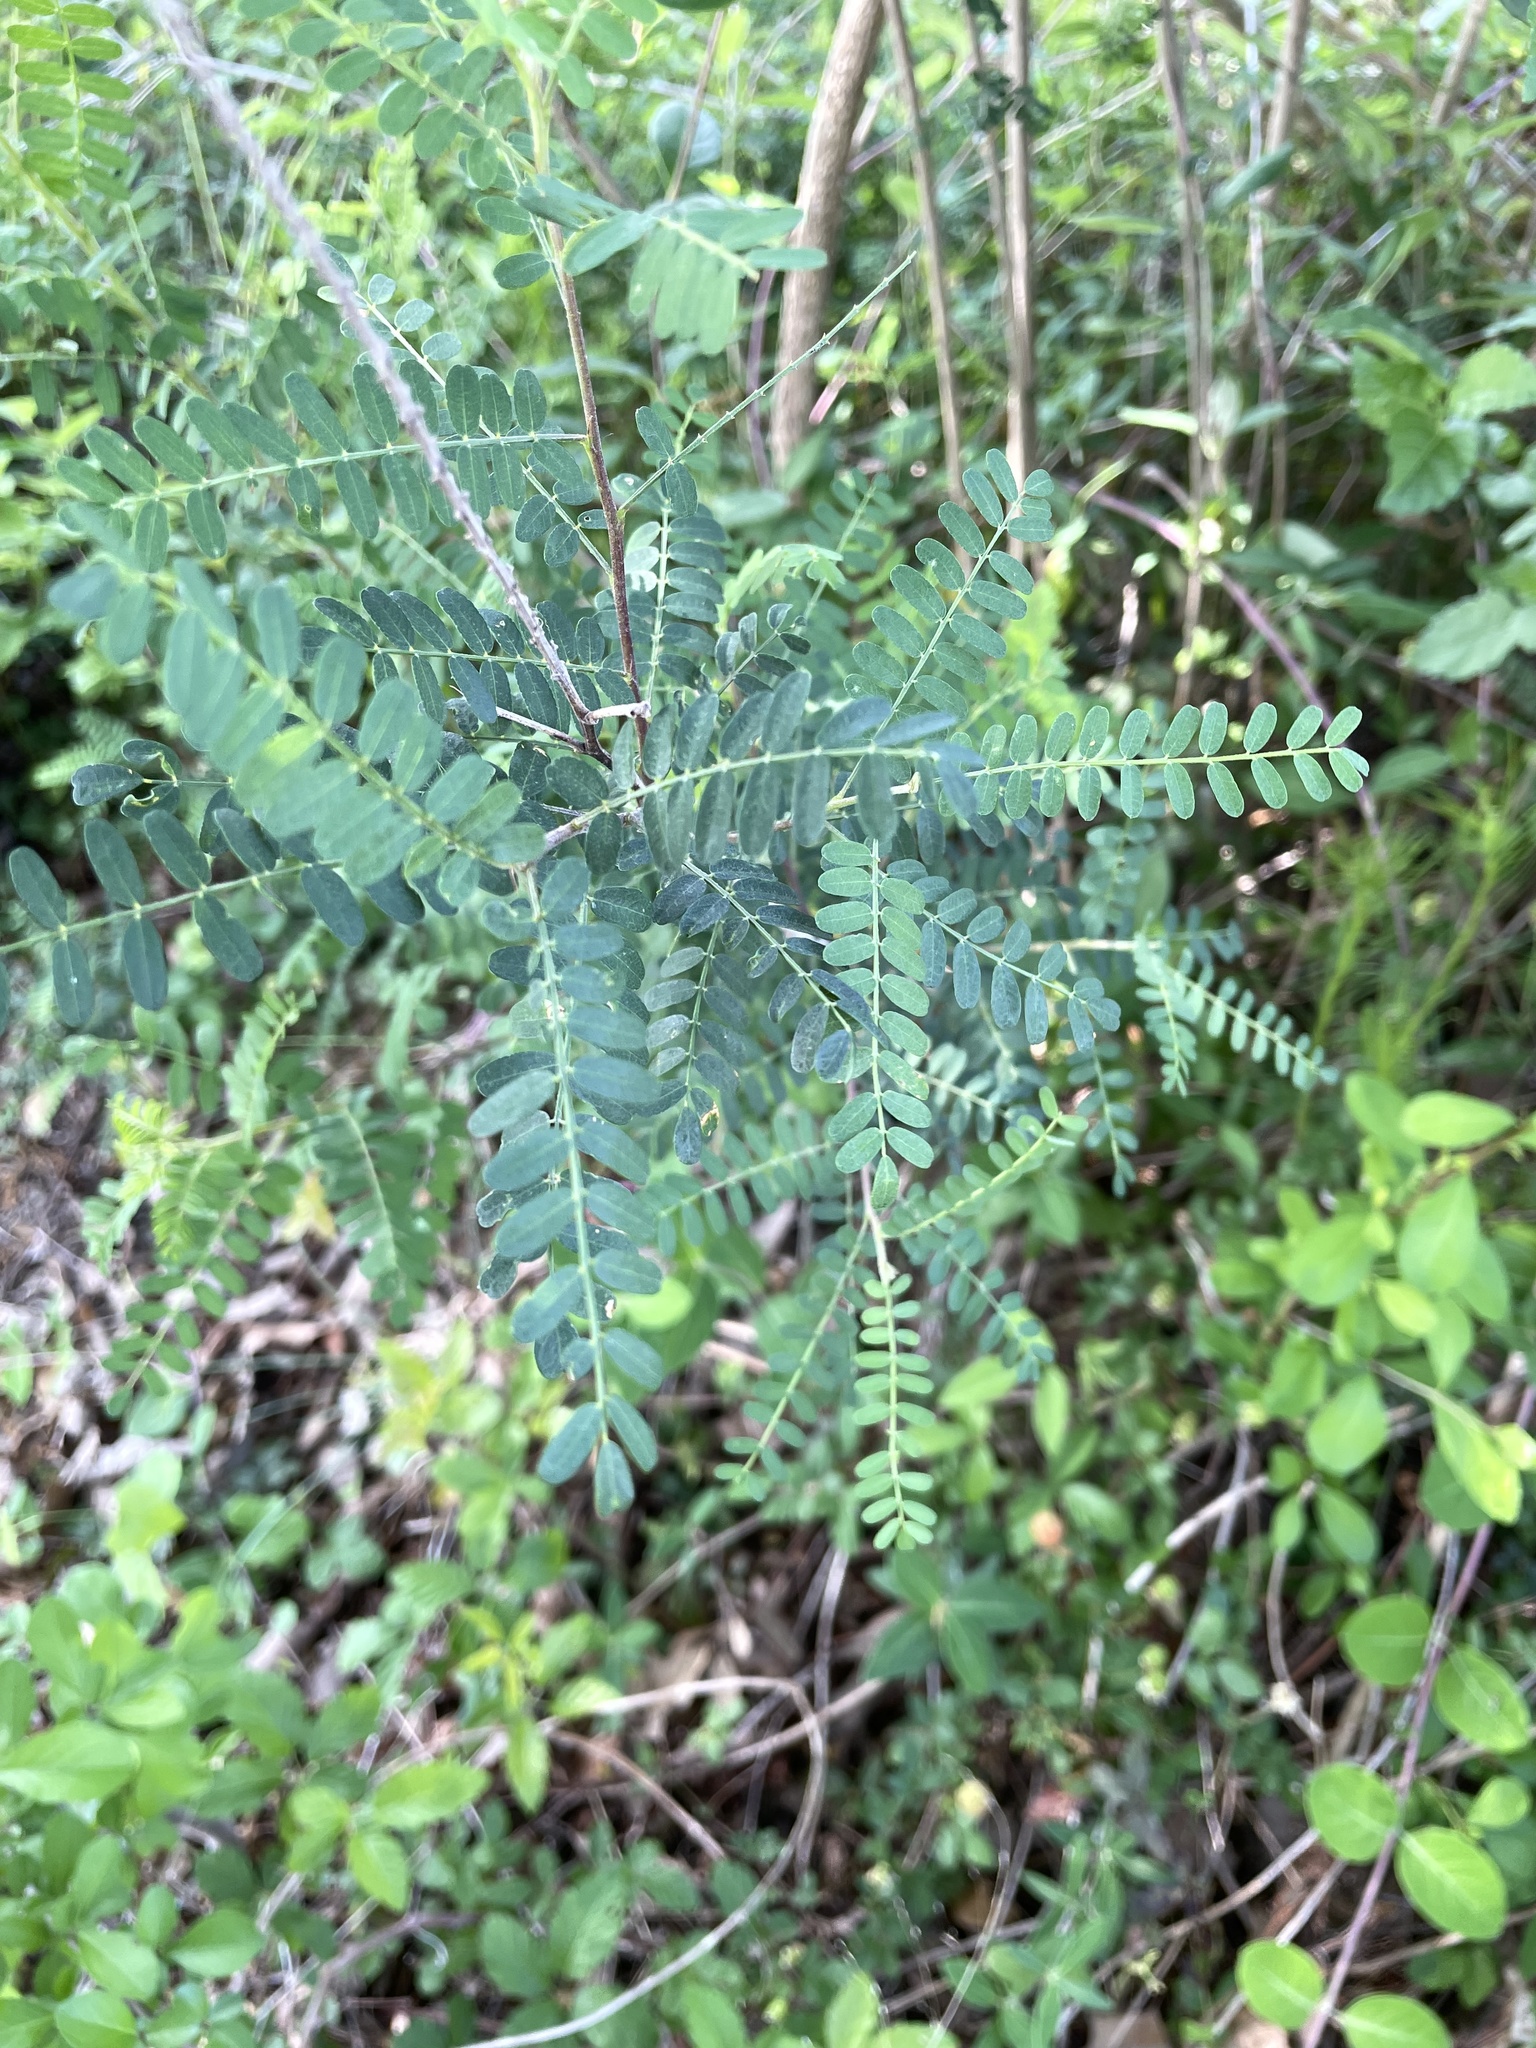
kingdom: Plantae
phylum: Tracheophyta
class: Magnoliopsida
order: Fabales
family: Fabaceae
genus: Eysenhardtia
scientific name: Eysenhardtia texana
